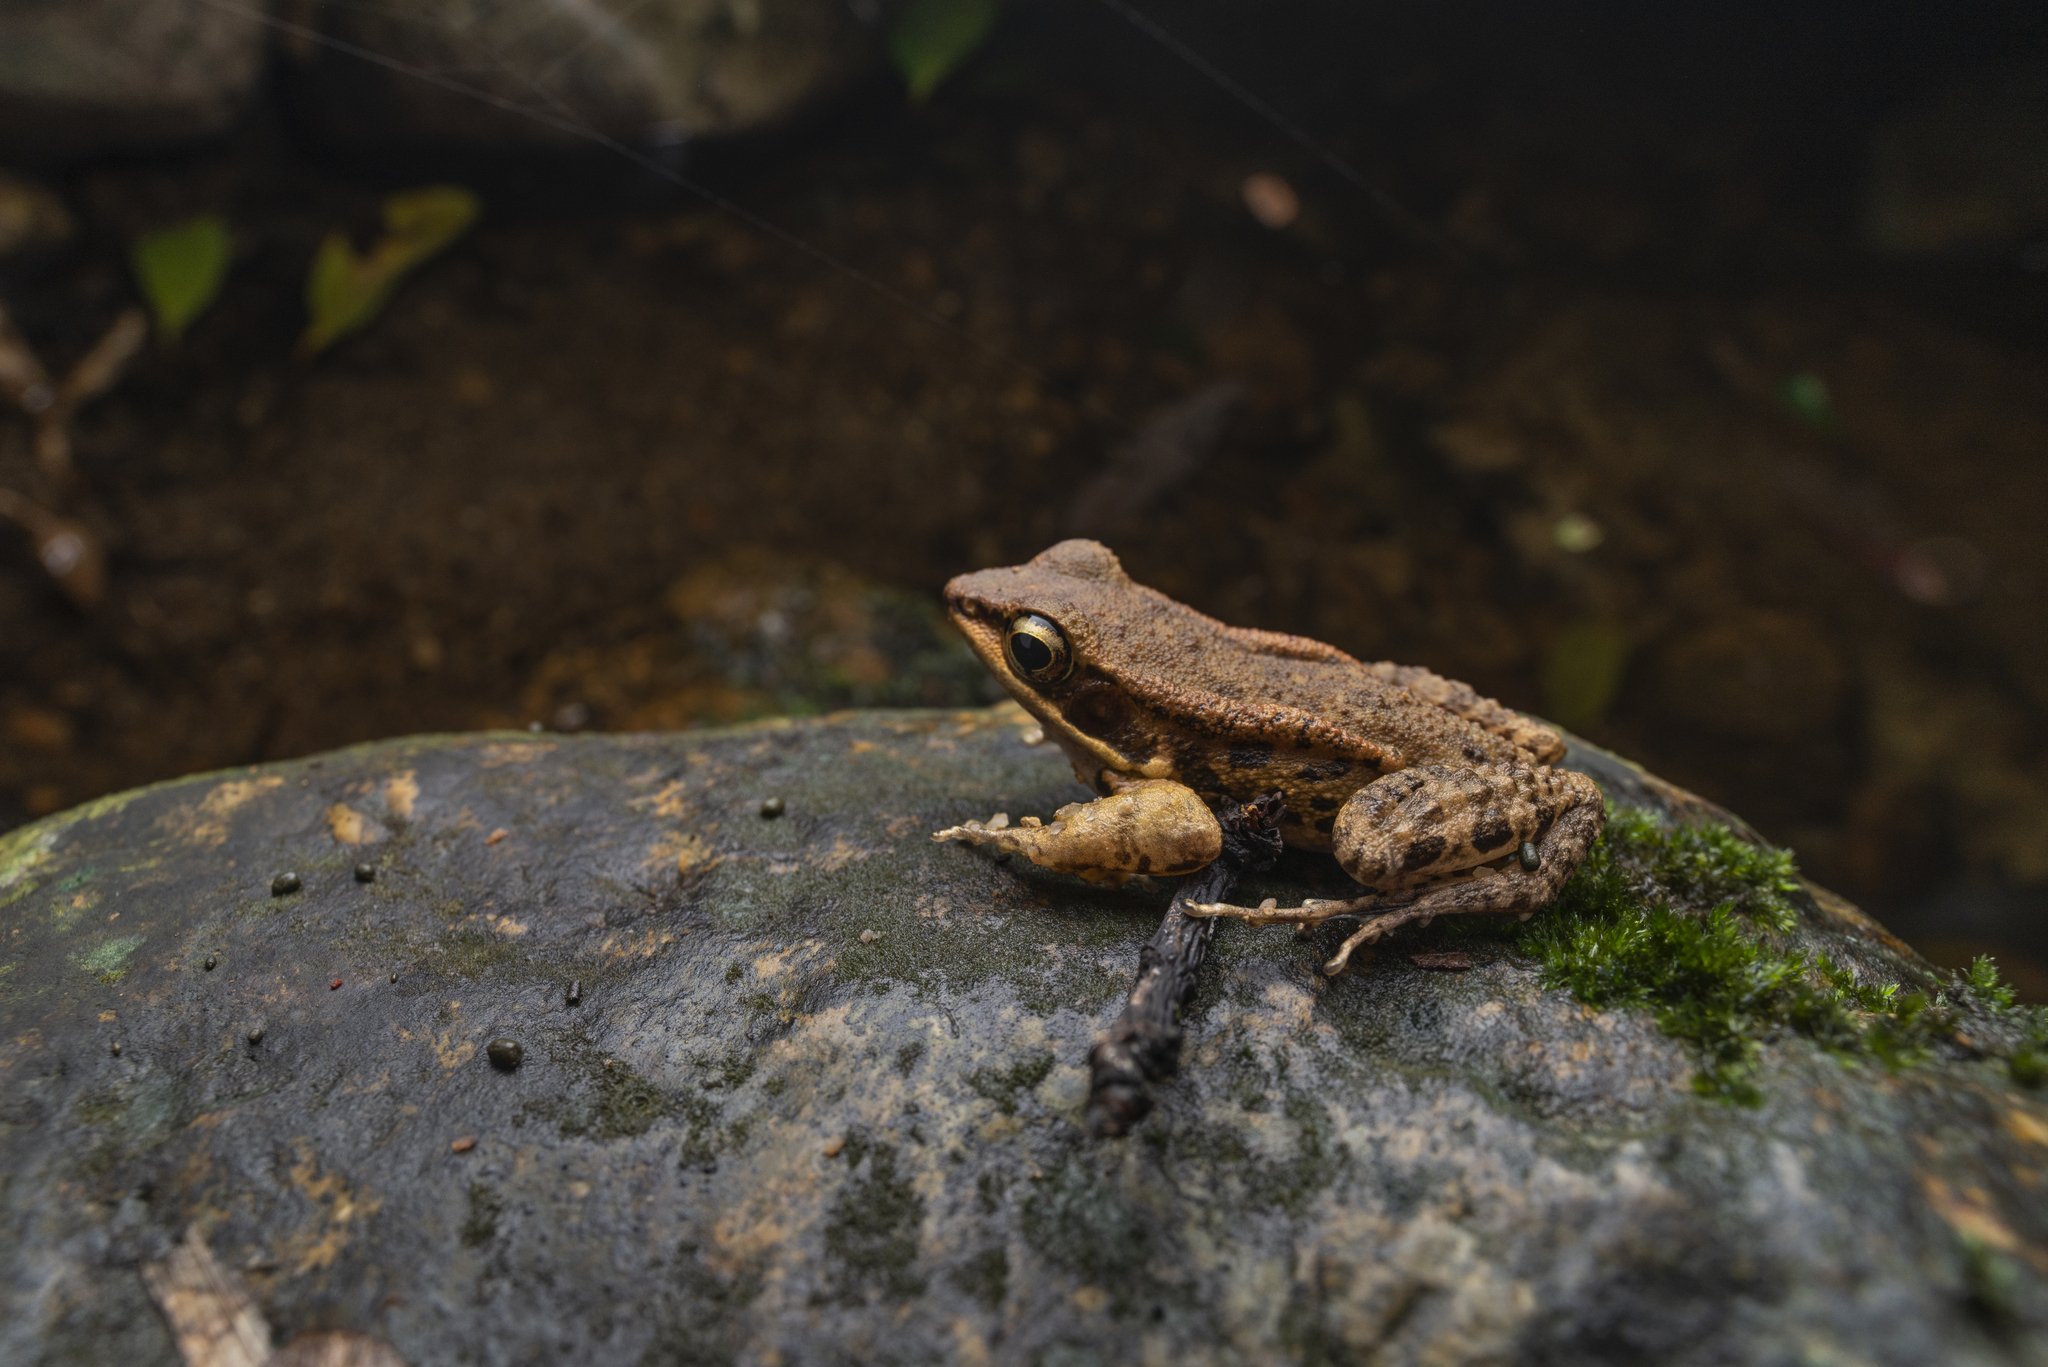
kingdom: Animalia
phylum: Chordata
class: Amphibia
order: Anura
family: Ranidae
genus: Hylarana
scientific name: Hylarana latouchii
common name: Broad-folded frog
